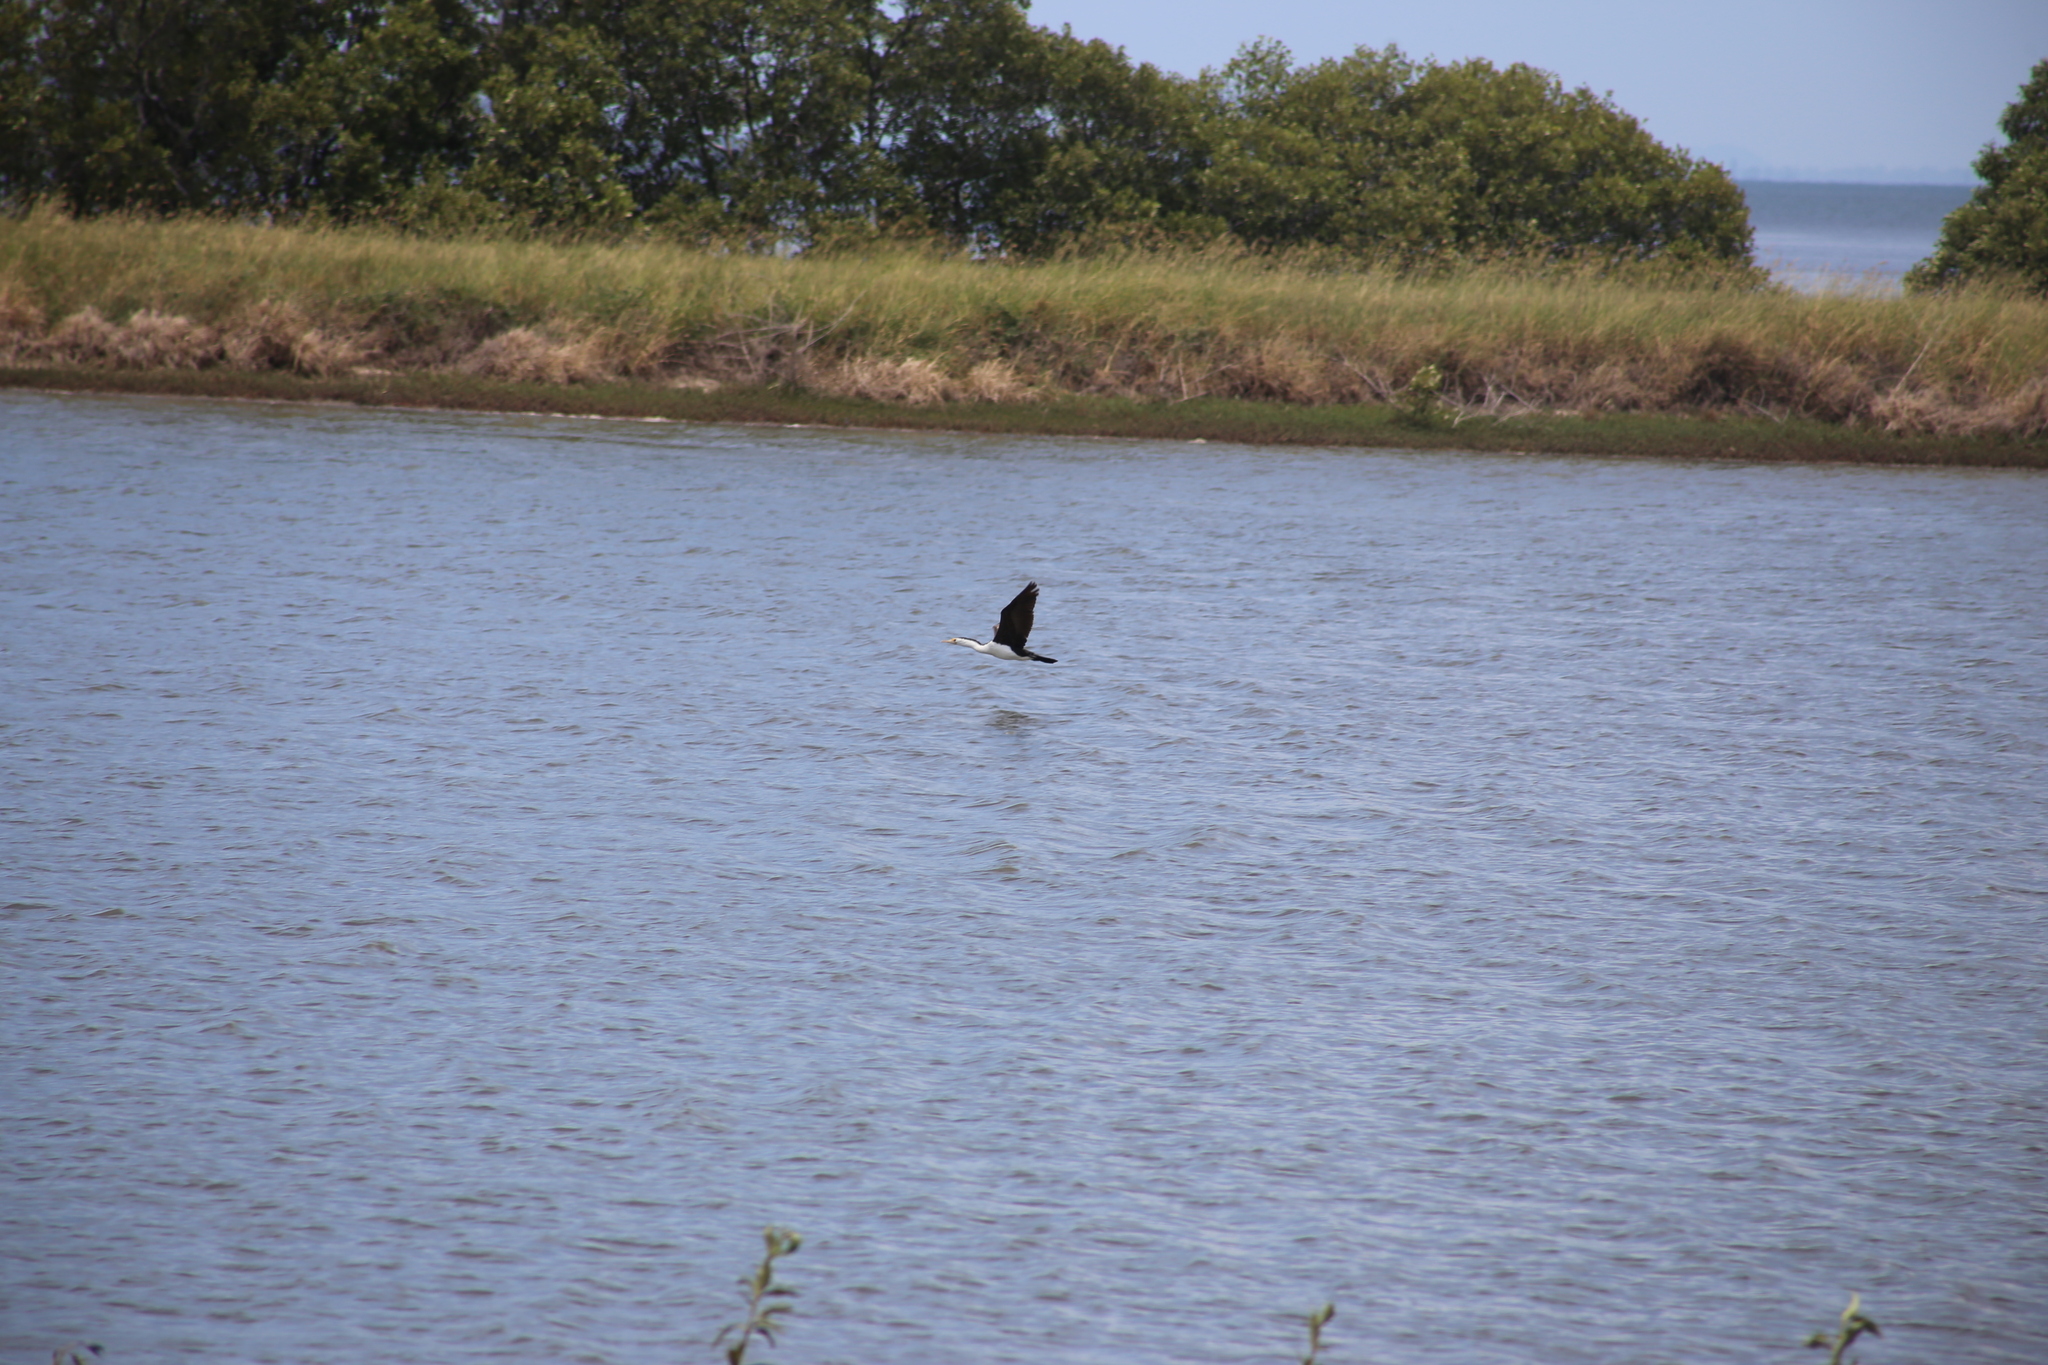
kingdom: Animalia
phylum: Chordata
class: Aves
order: Suliformes
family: Phalacrocoracidae
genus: Phalacrocorax
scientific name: Phalacrocorax varius
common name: Pied cormorant
